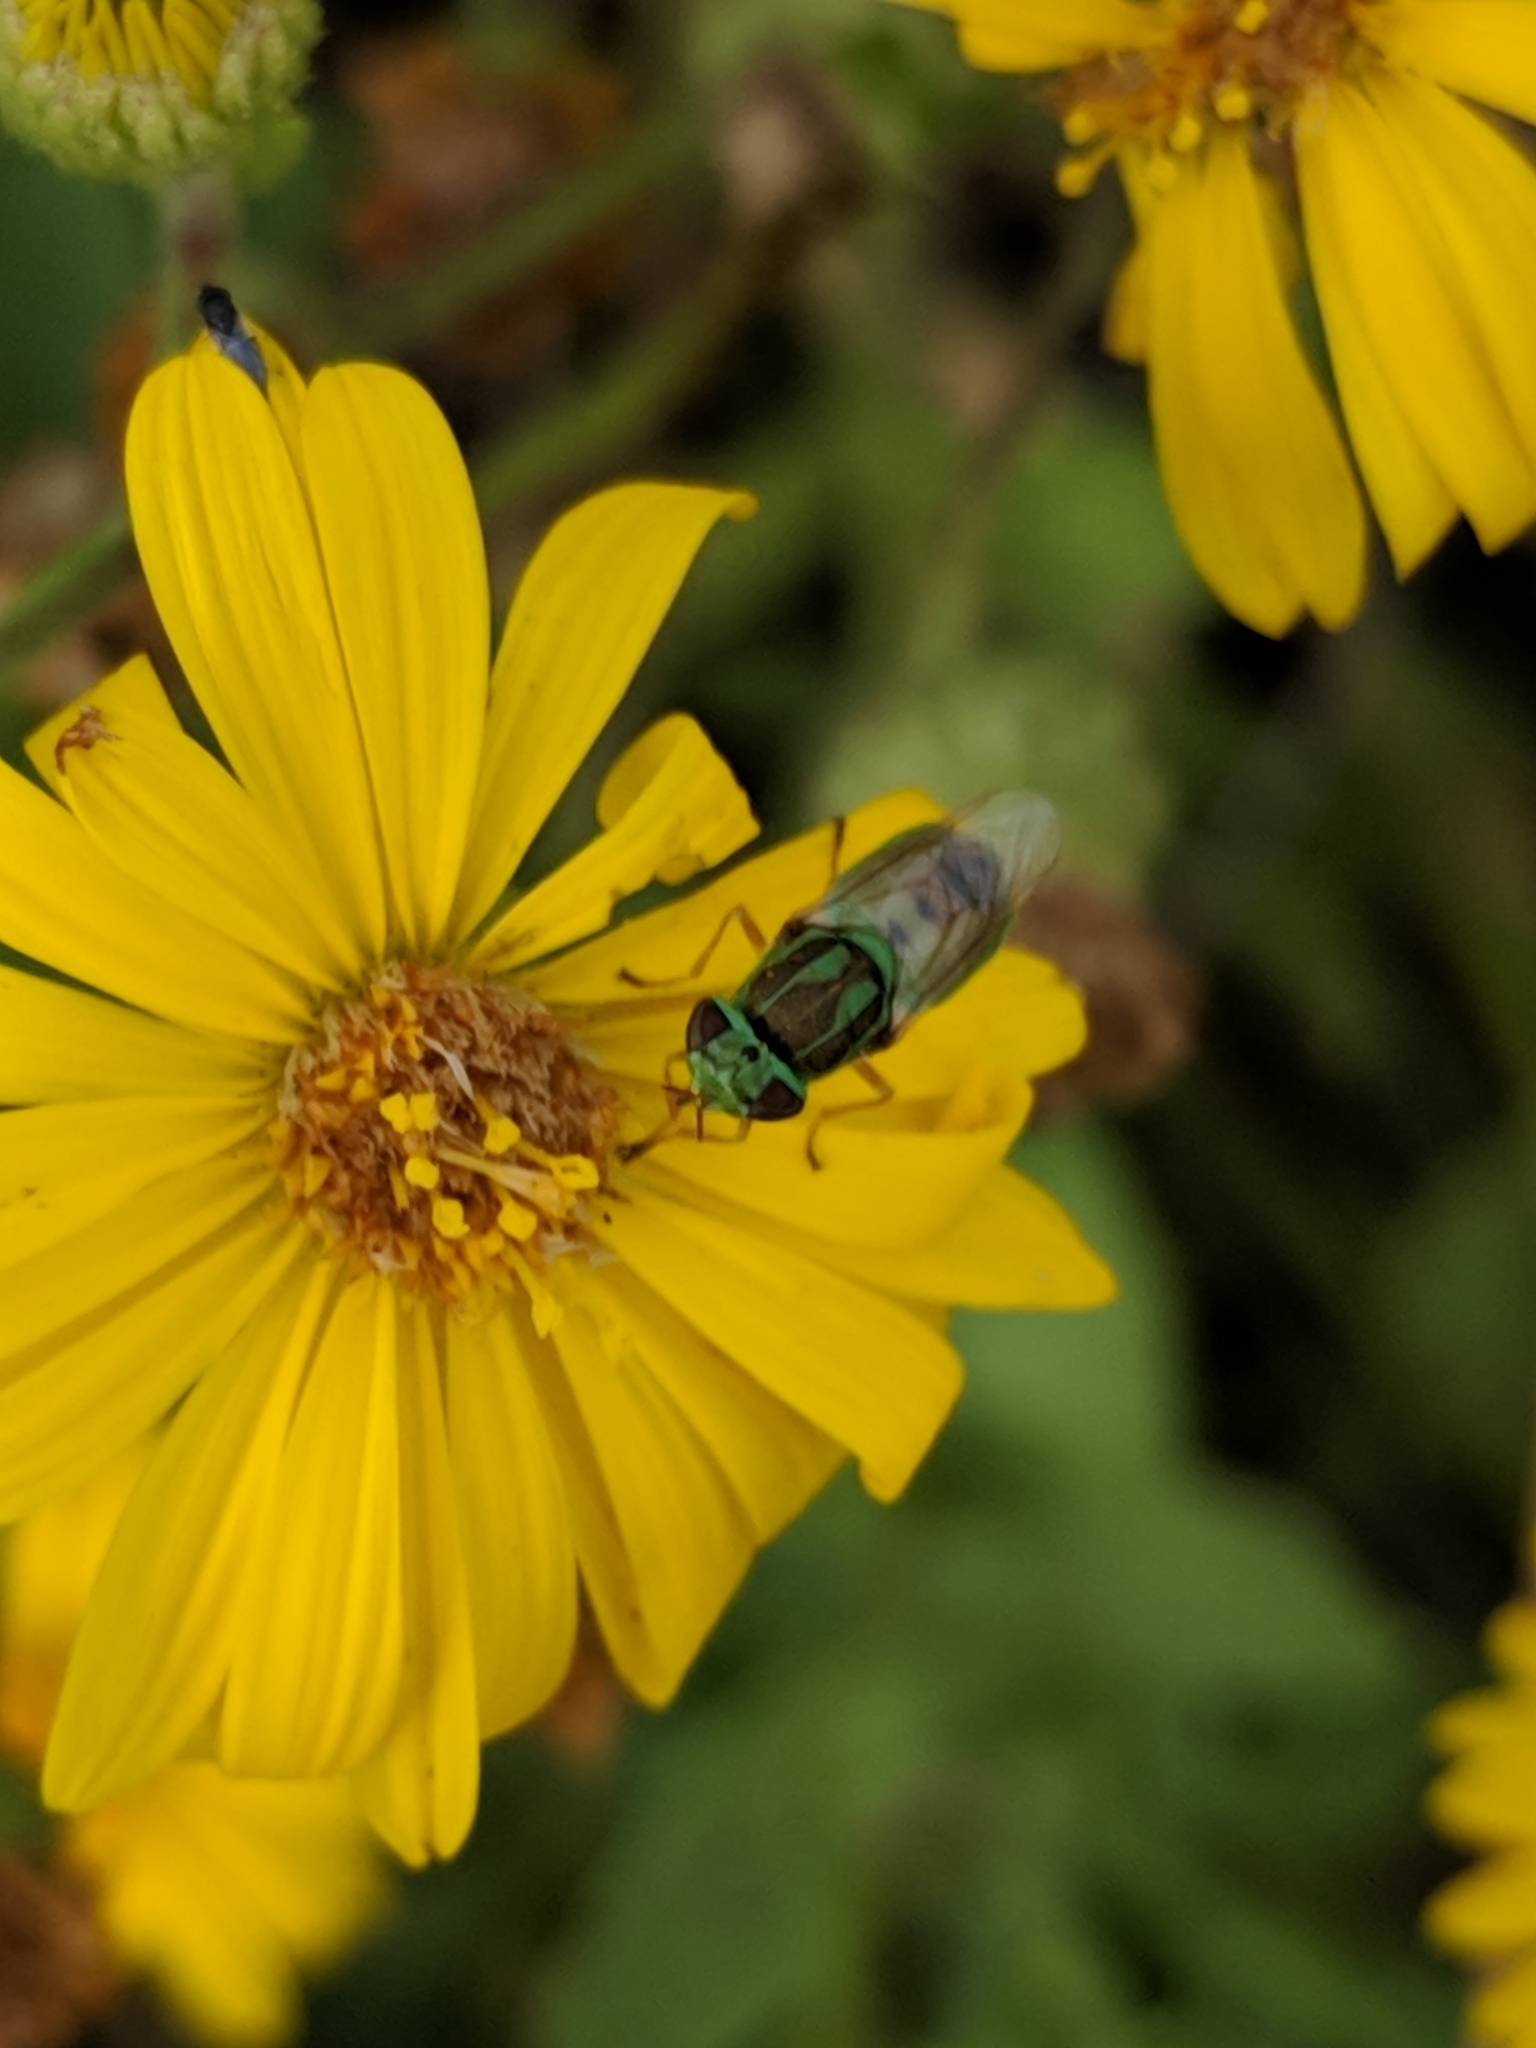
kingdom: Animalia
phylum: Arthropoda
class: Insecta
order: Diptera
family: Stratiomyidae
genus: Hedriodiscus
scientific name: Hedriodiscus trivittatus
